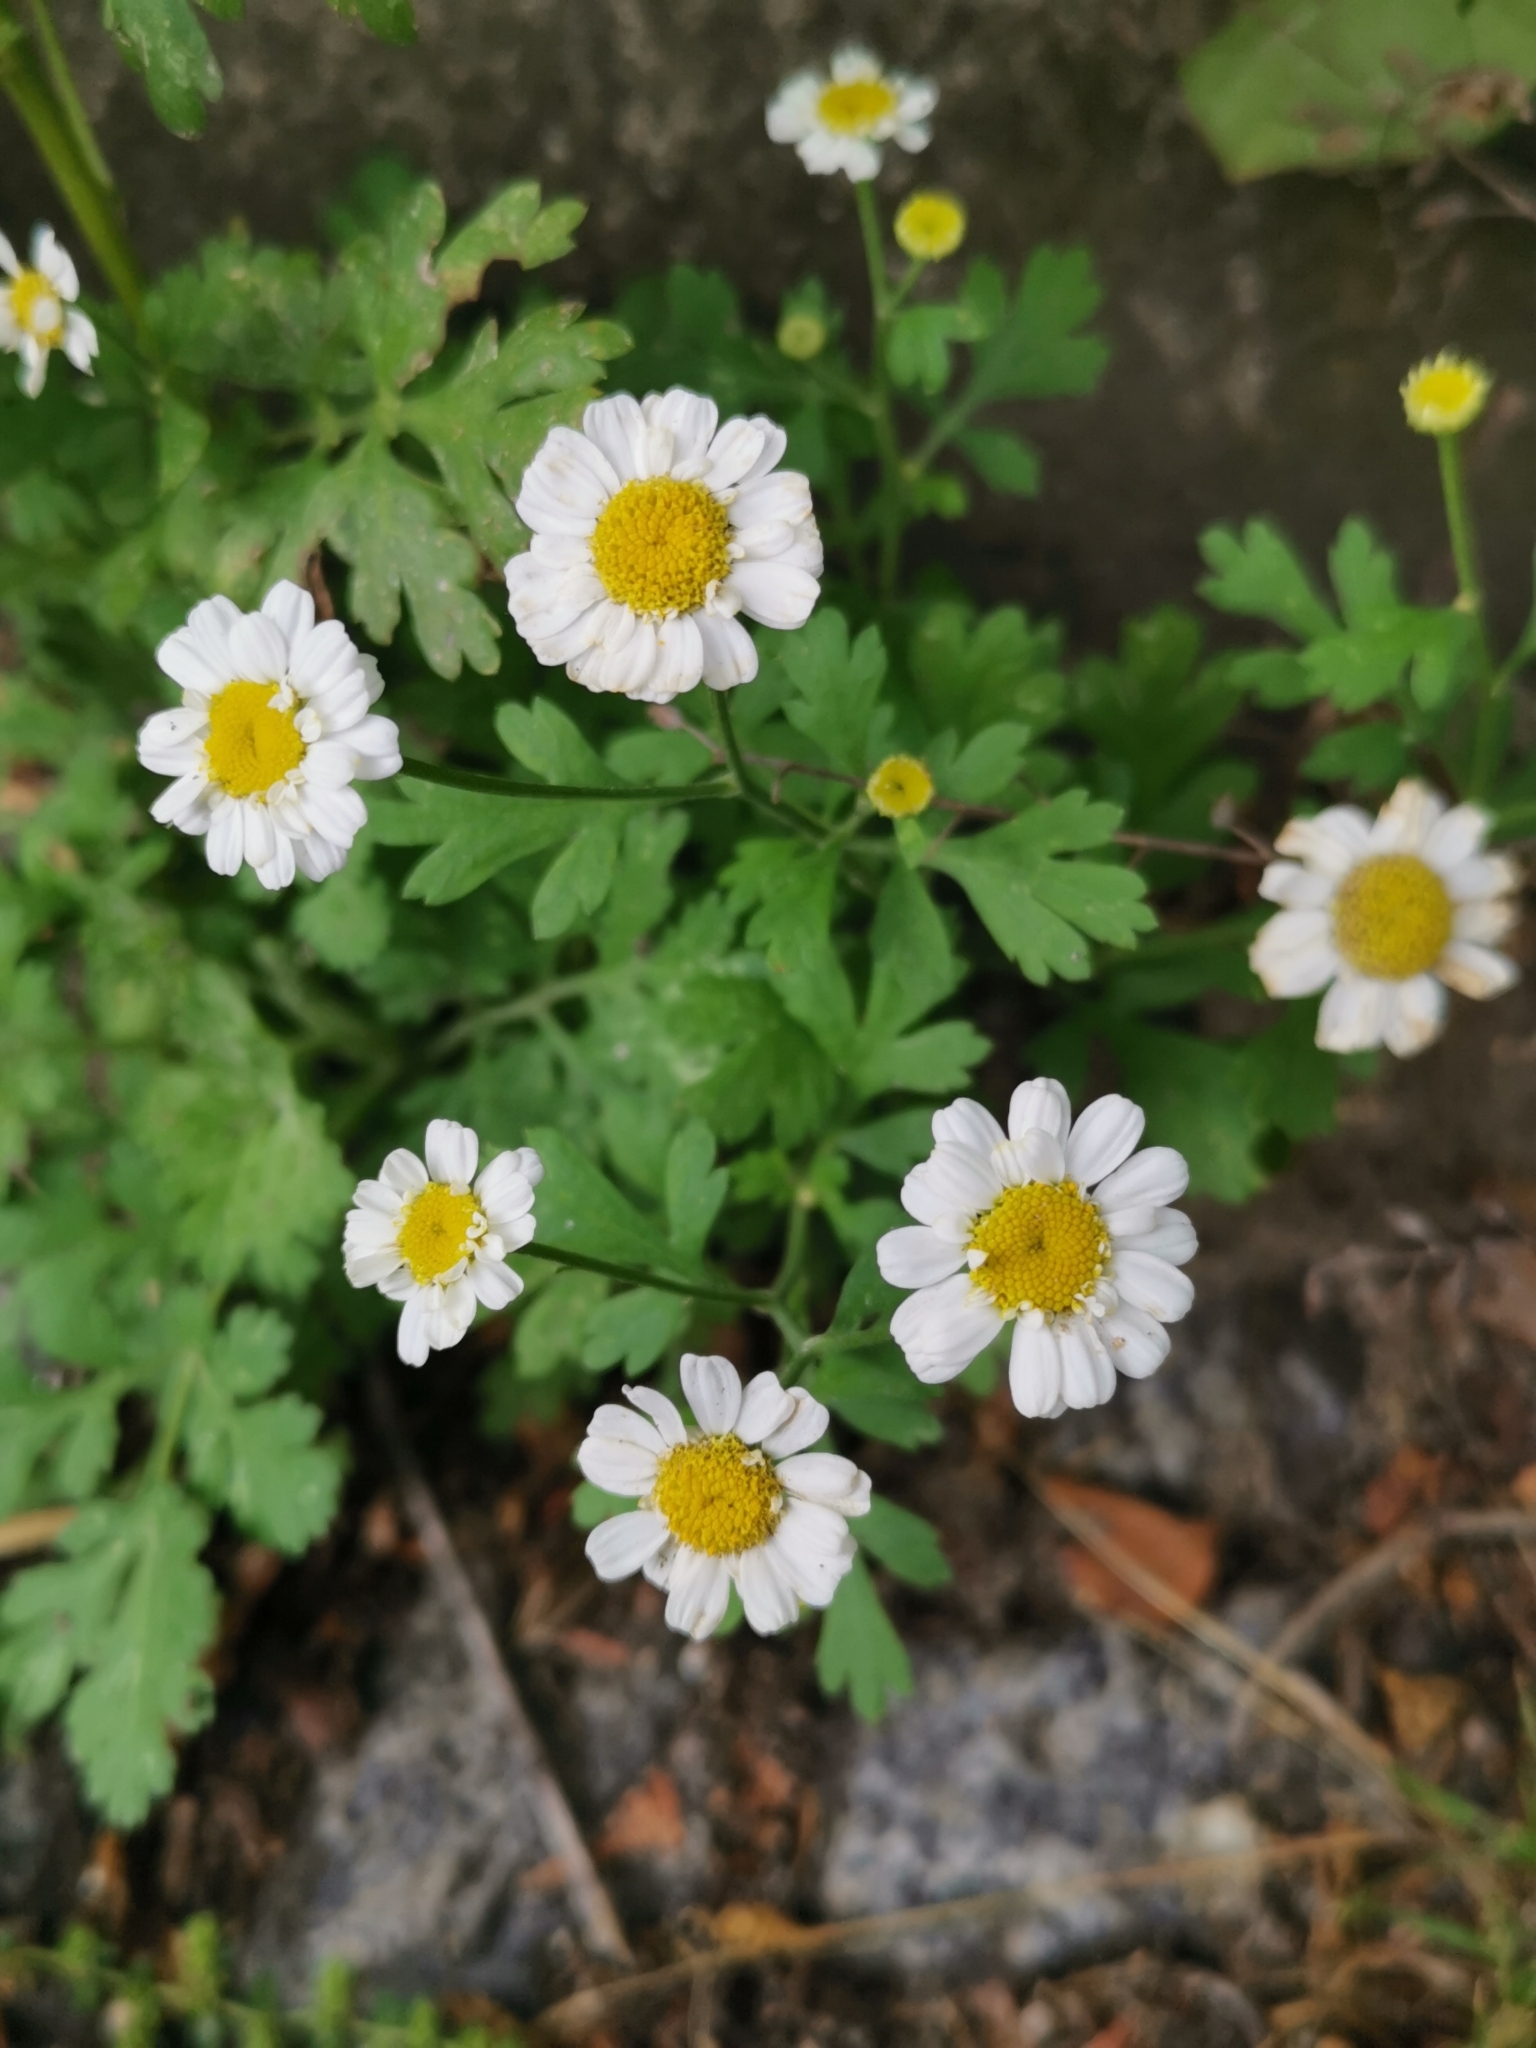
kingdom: Plantae
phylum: Tracheophyta
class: Magnoliopsida
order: Asterales
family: Asteraceae
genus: Tanacetum
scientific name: Tanacetum parthenium
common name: Feverfew
